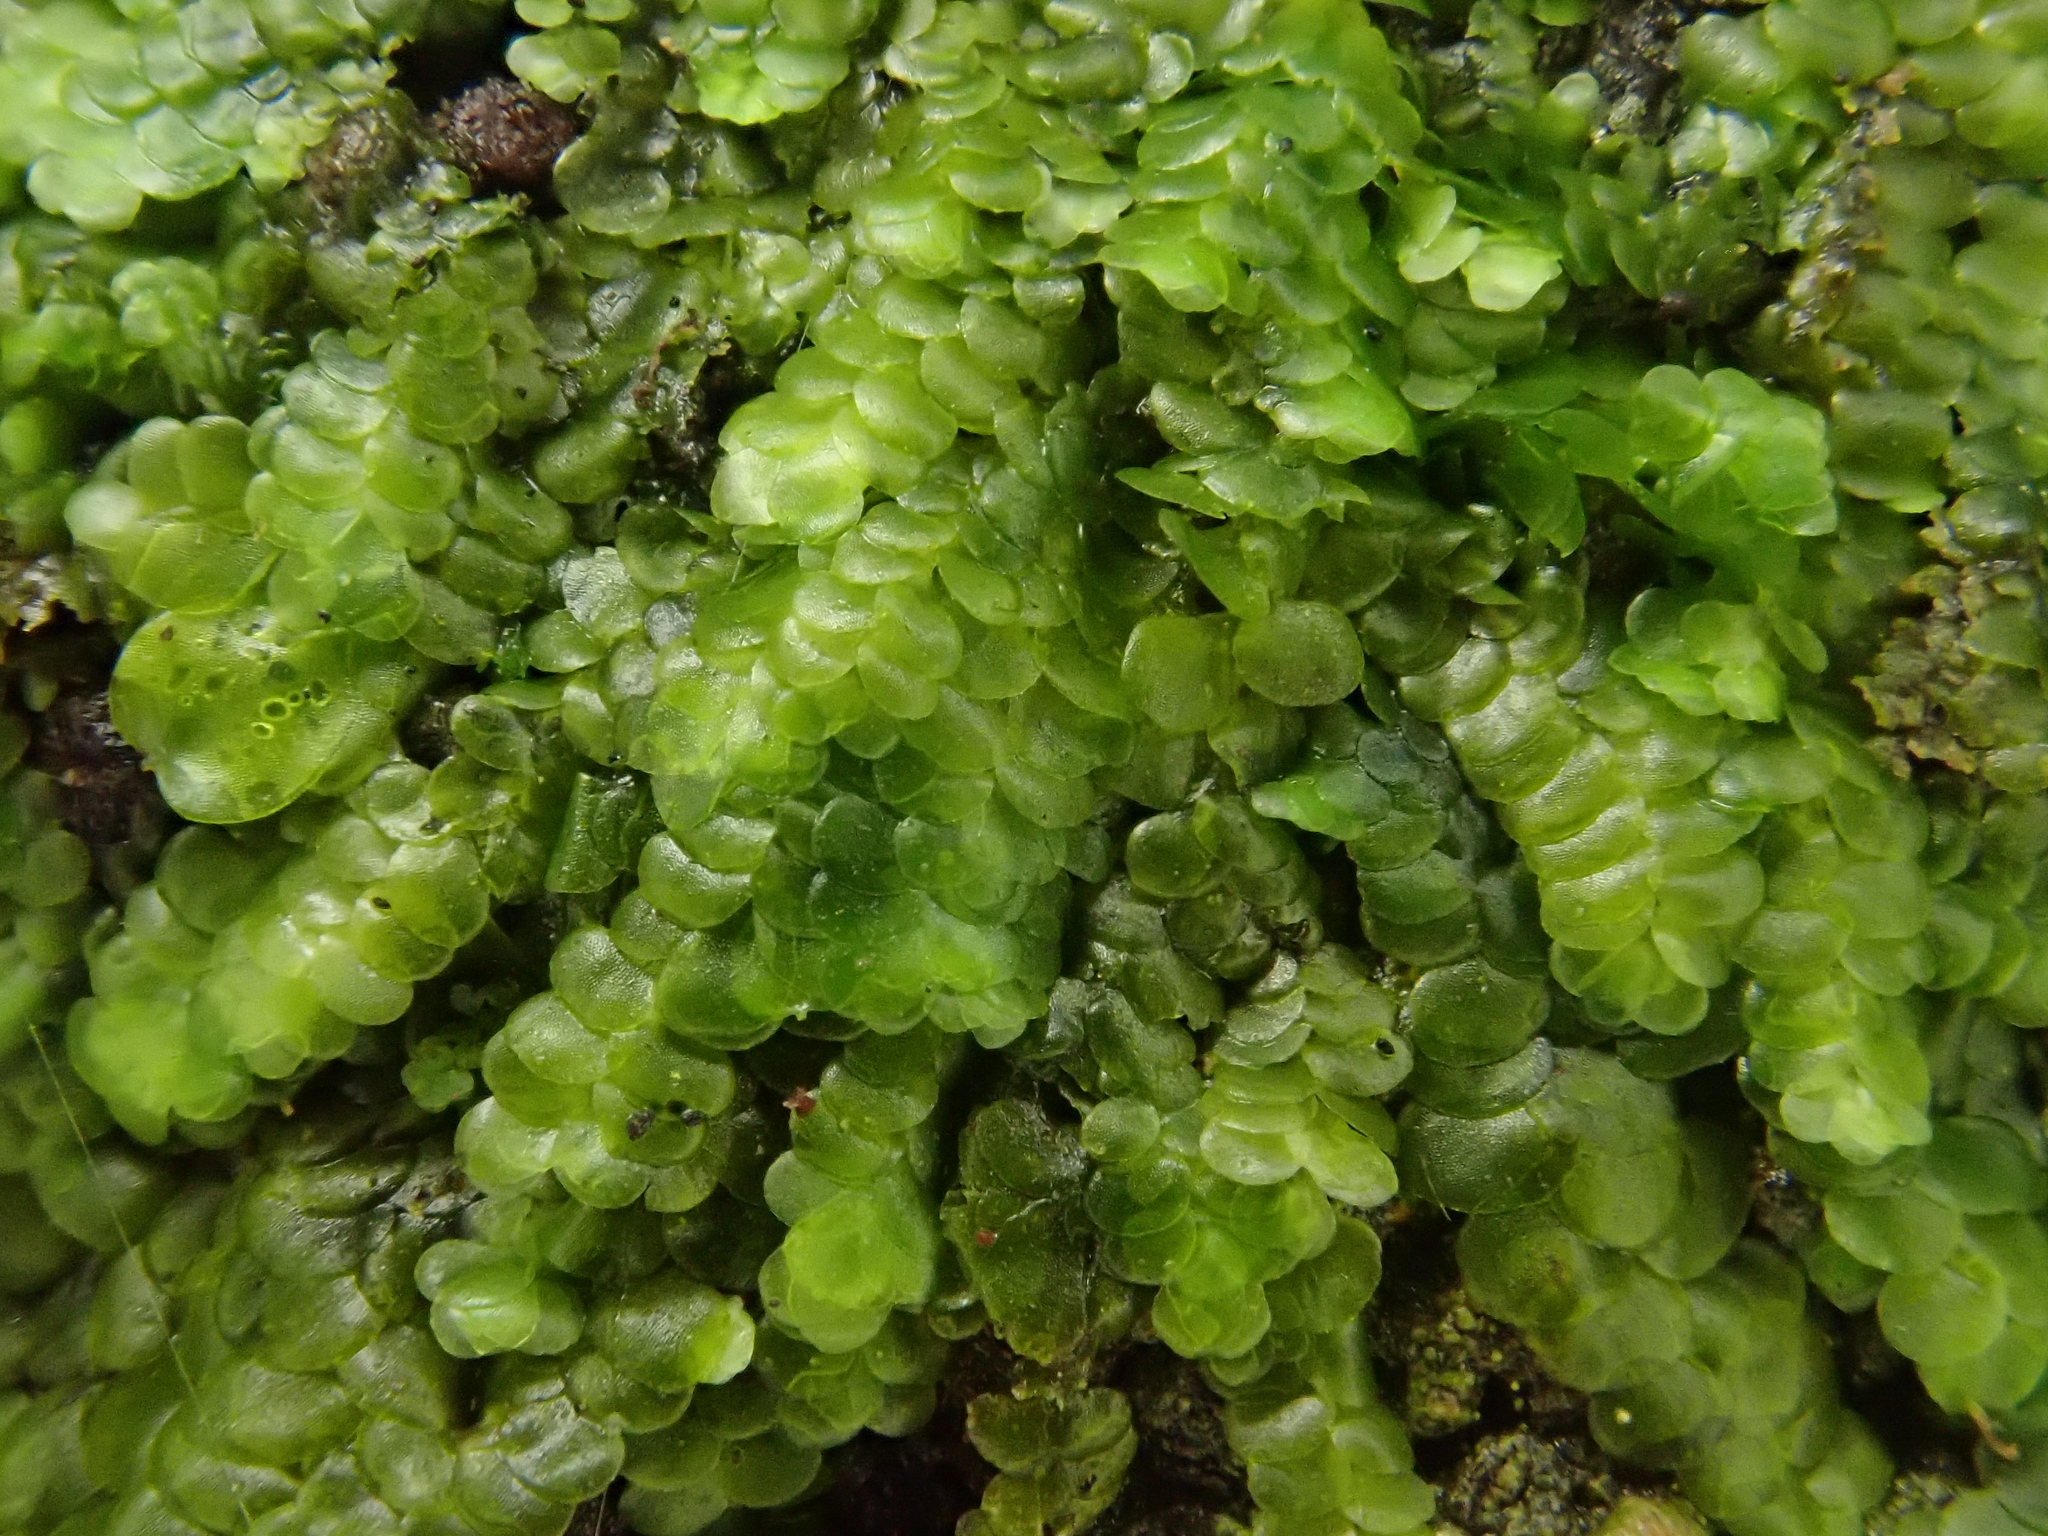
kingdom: Plantae
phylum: Marchantiophyta
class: Jungermanniopsida
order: Porellales
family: Lejeuneaceae
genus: Marchesinia
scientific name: Marchesinia mackaii
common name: Mackay's pouncewort
